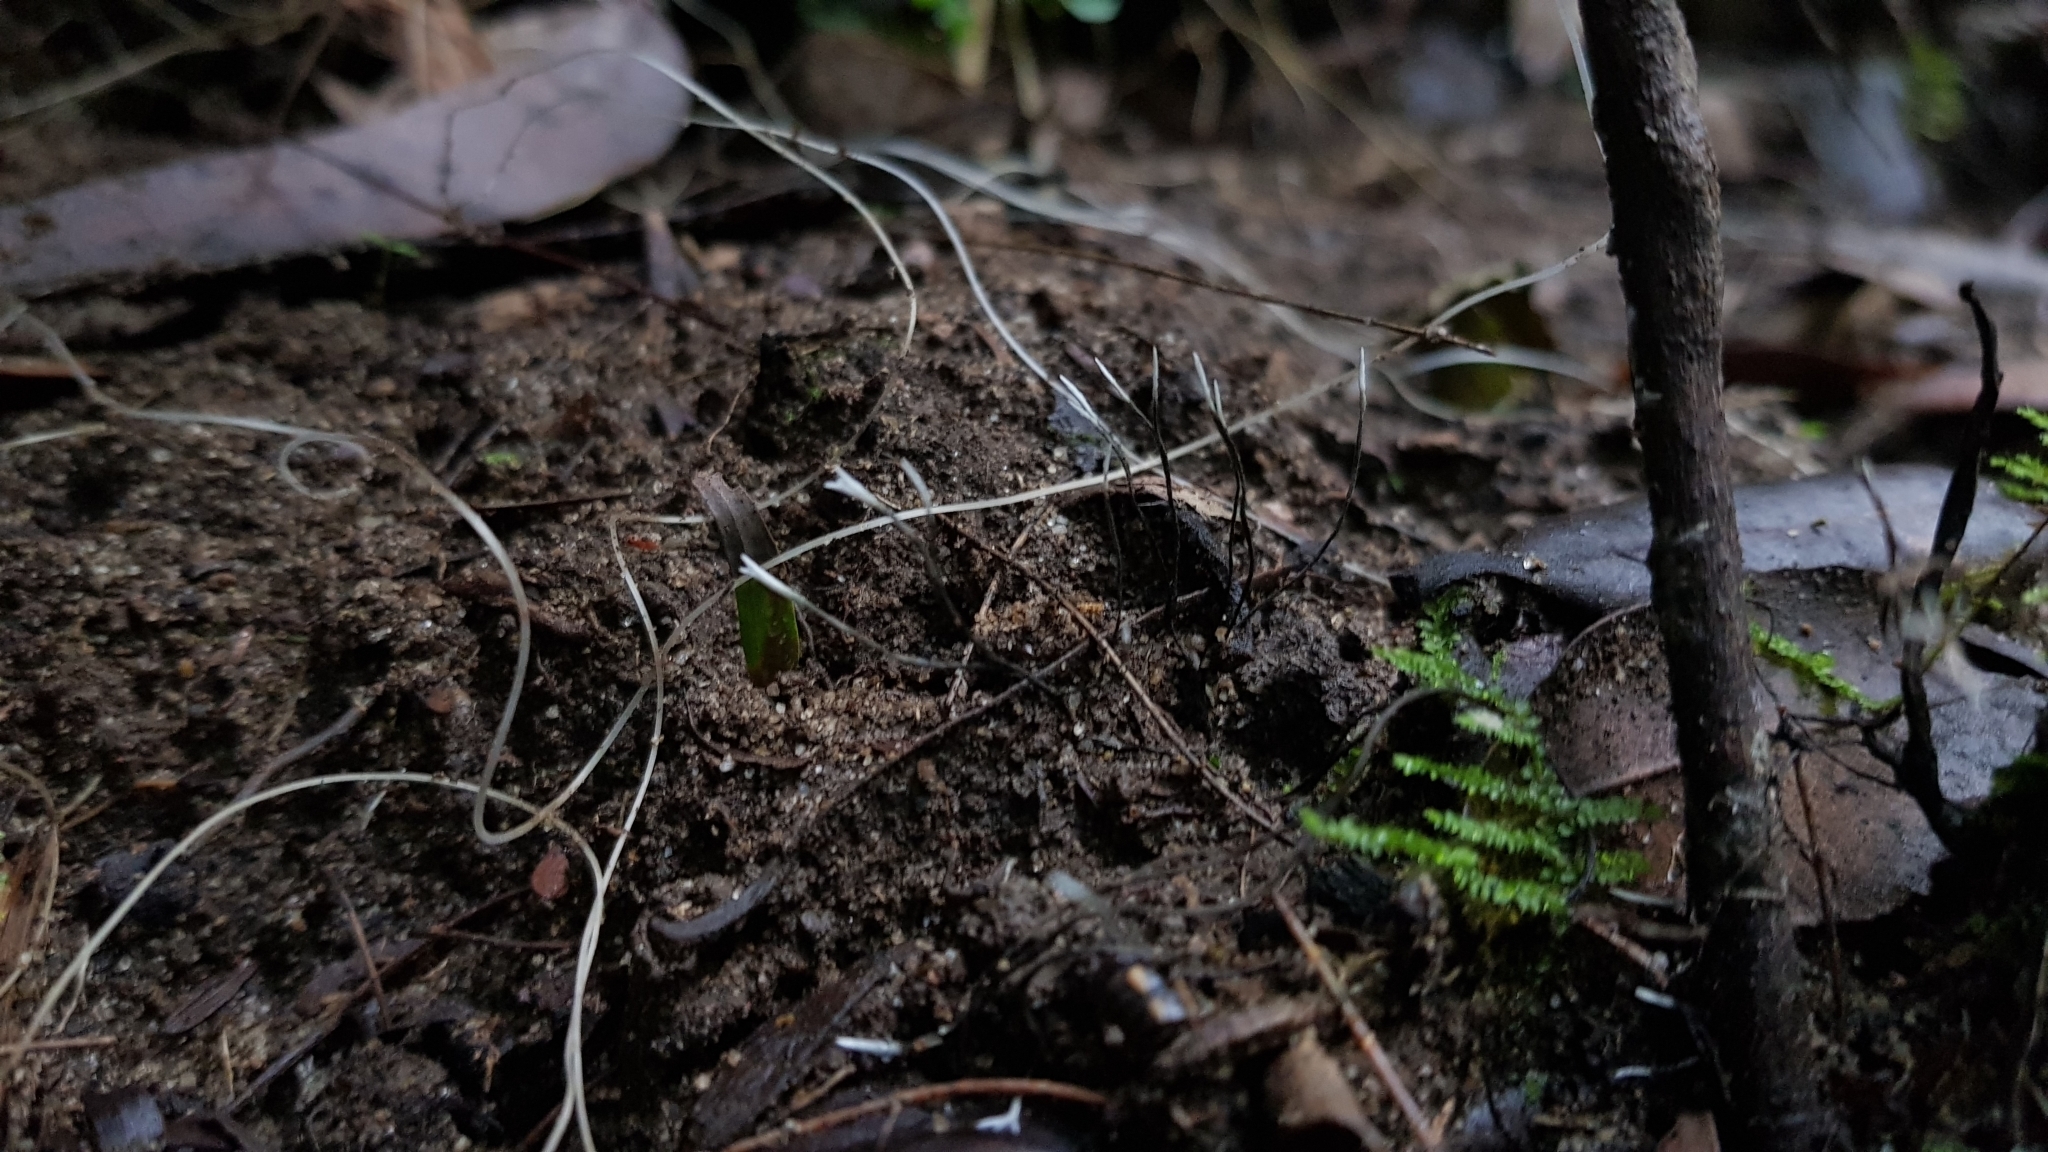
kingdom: Fungi
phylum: Ascomycota
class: Sordariomycetes
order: Xylariales
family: Xylariaceae
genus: Xylaria
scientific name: Xylaria filiformis
